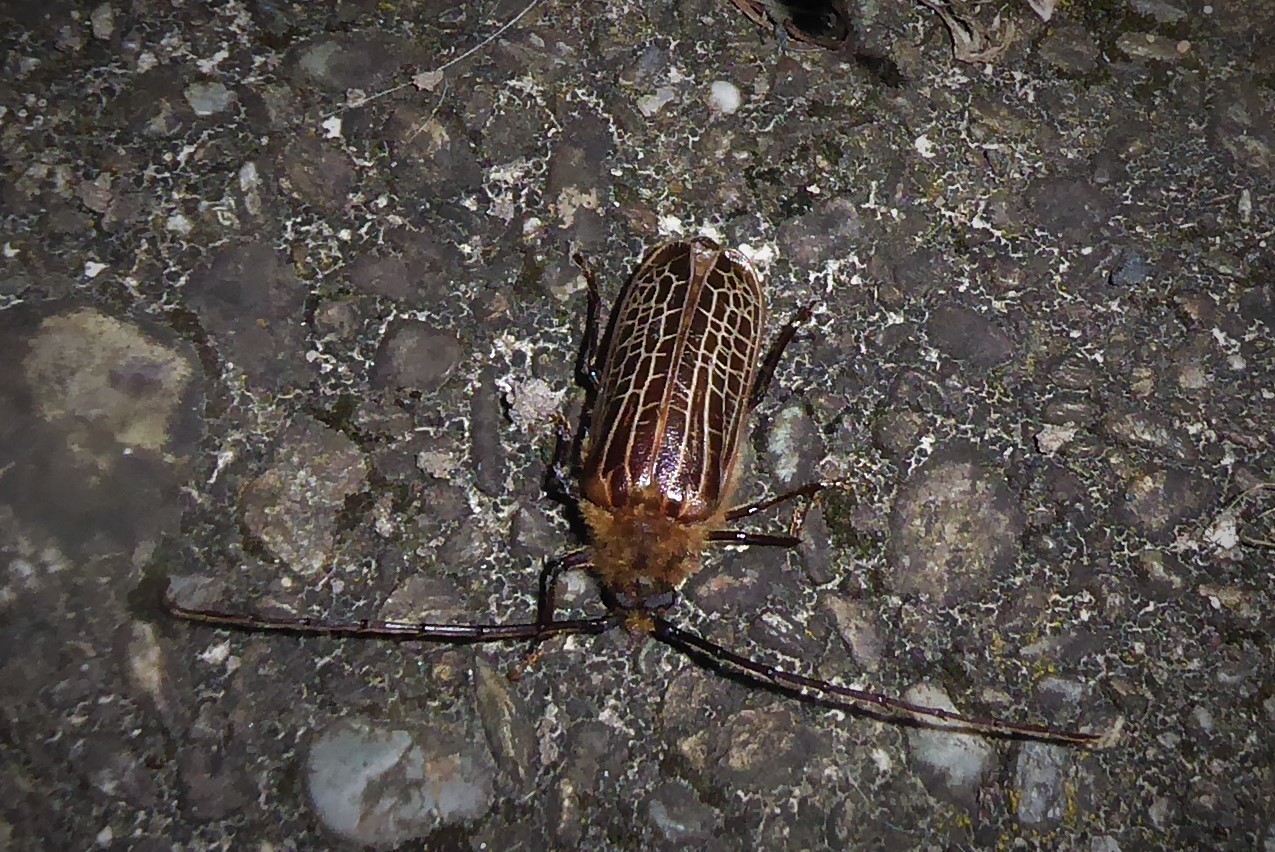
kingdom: Animalia
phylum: Arthropoda
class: Insecta
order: Coleoptera
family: Cerambycidae
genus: Prionoplus
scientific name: Prionoplus reticularis
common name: Huhu beetle
